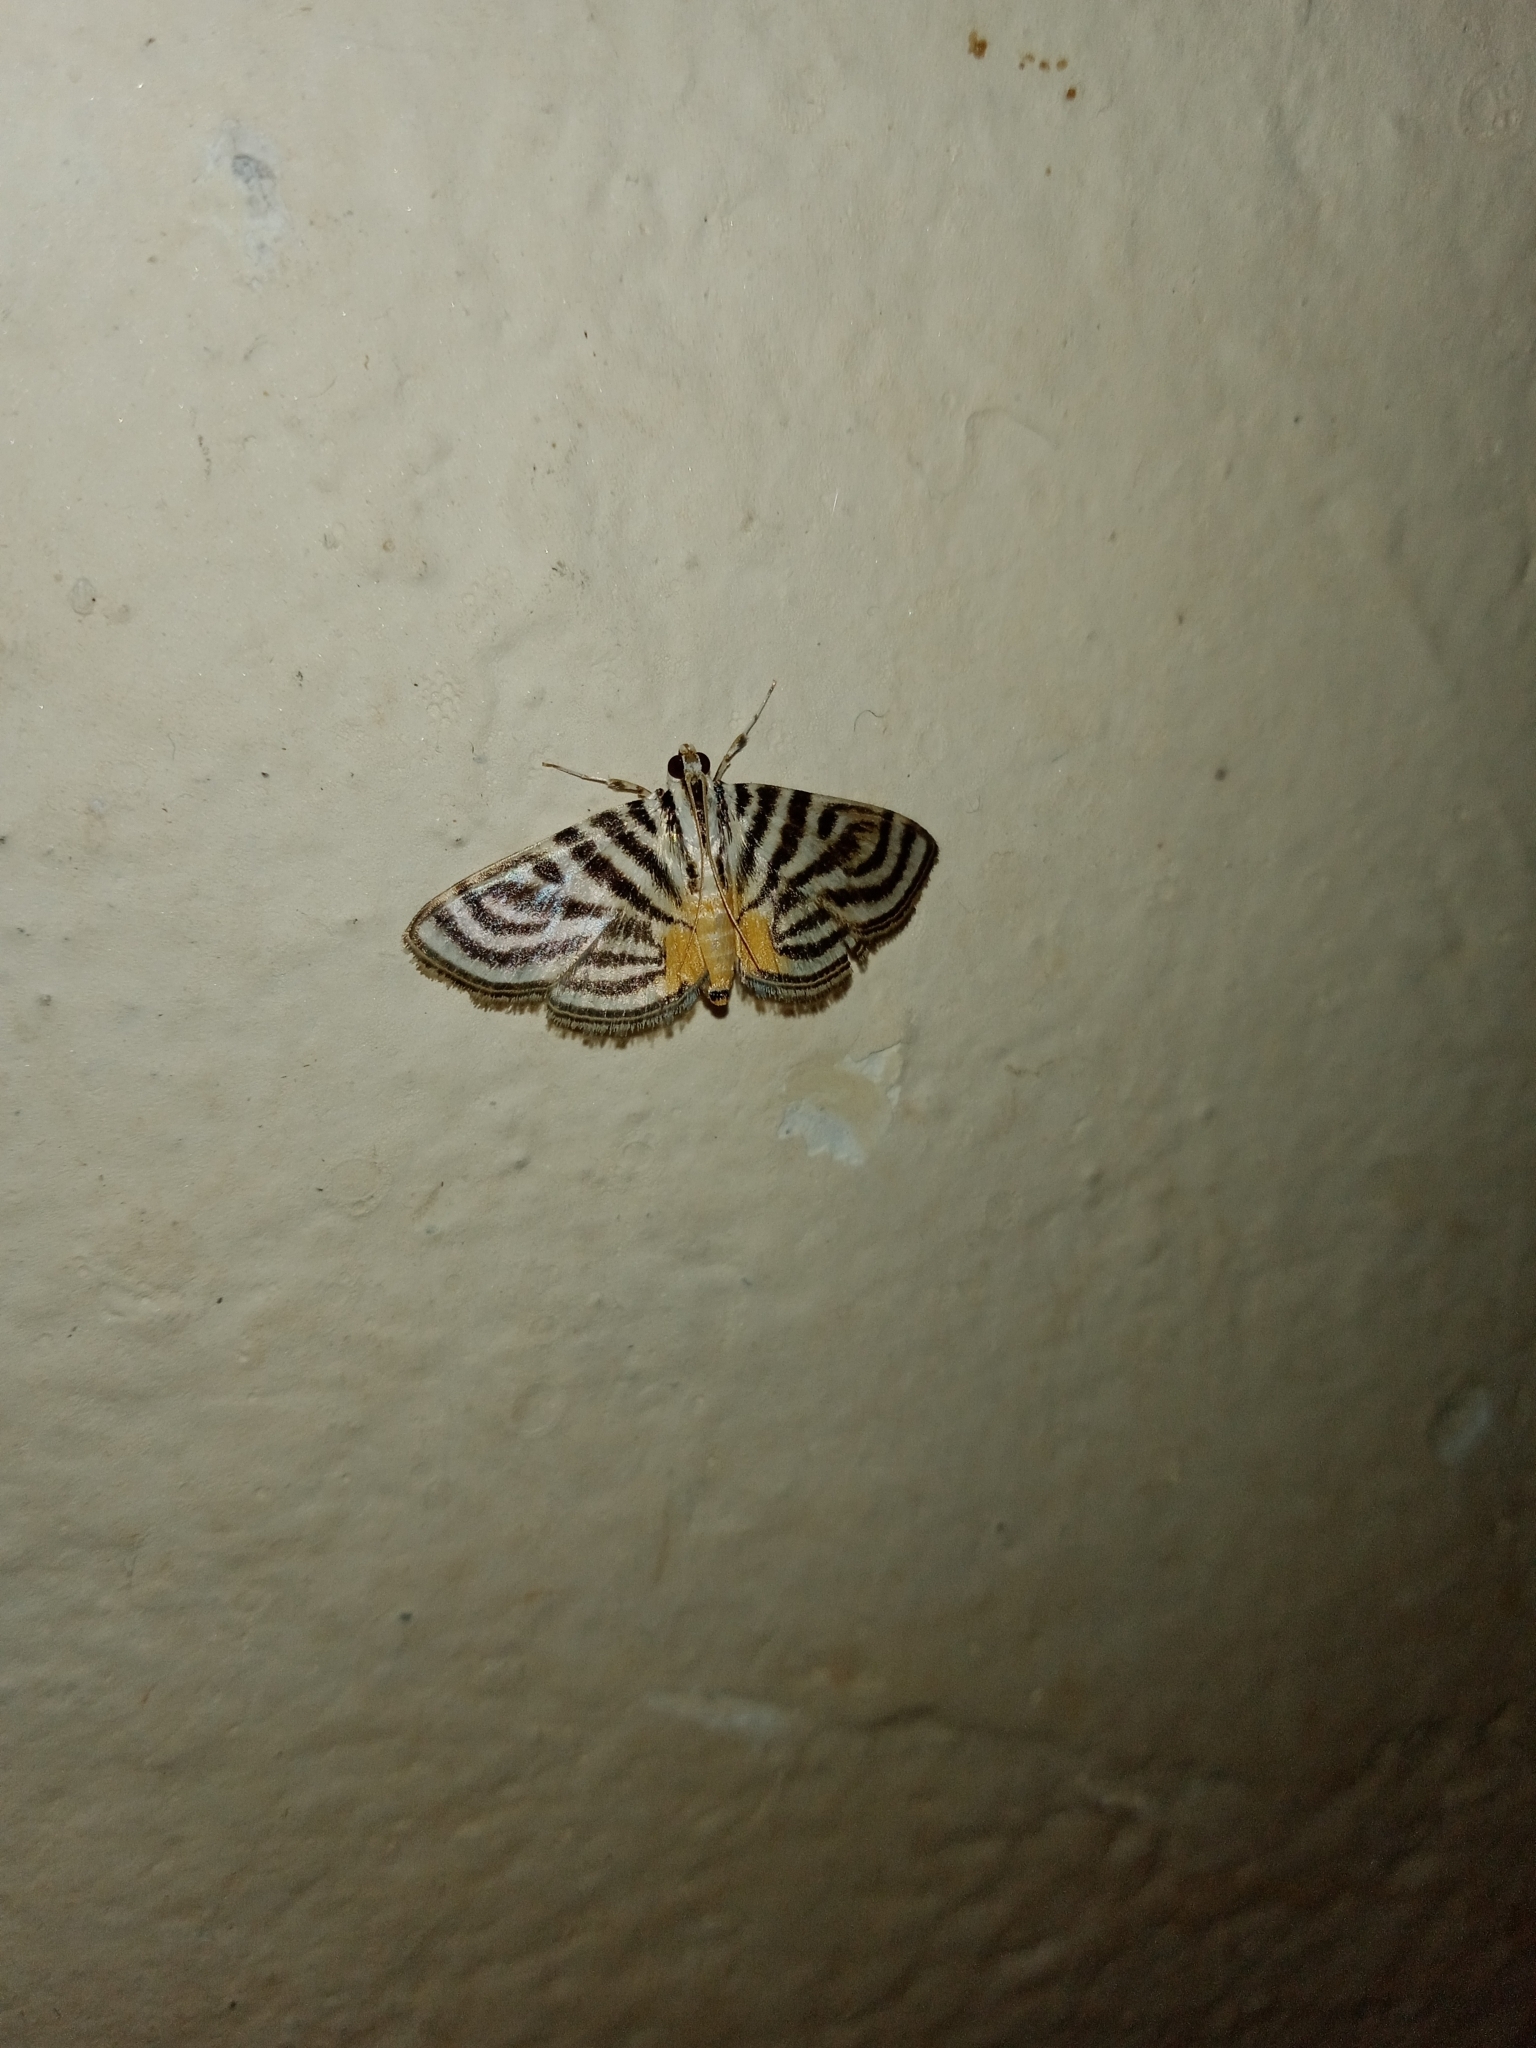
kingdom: Animalia
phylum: Arthropoda
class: Insecta
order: Lepidoptera
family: Crambidae
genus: Dichocrocis
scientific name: Dichocrocis rigidalis
